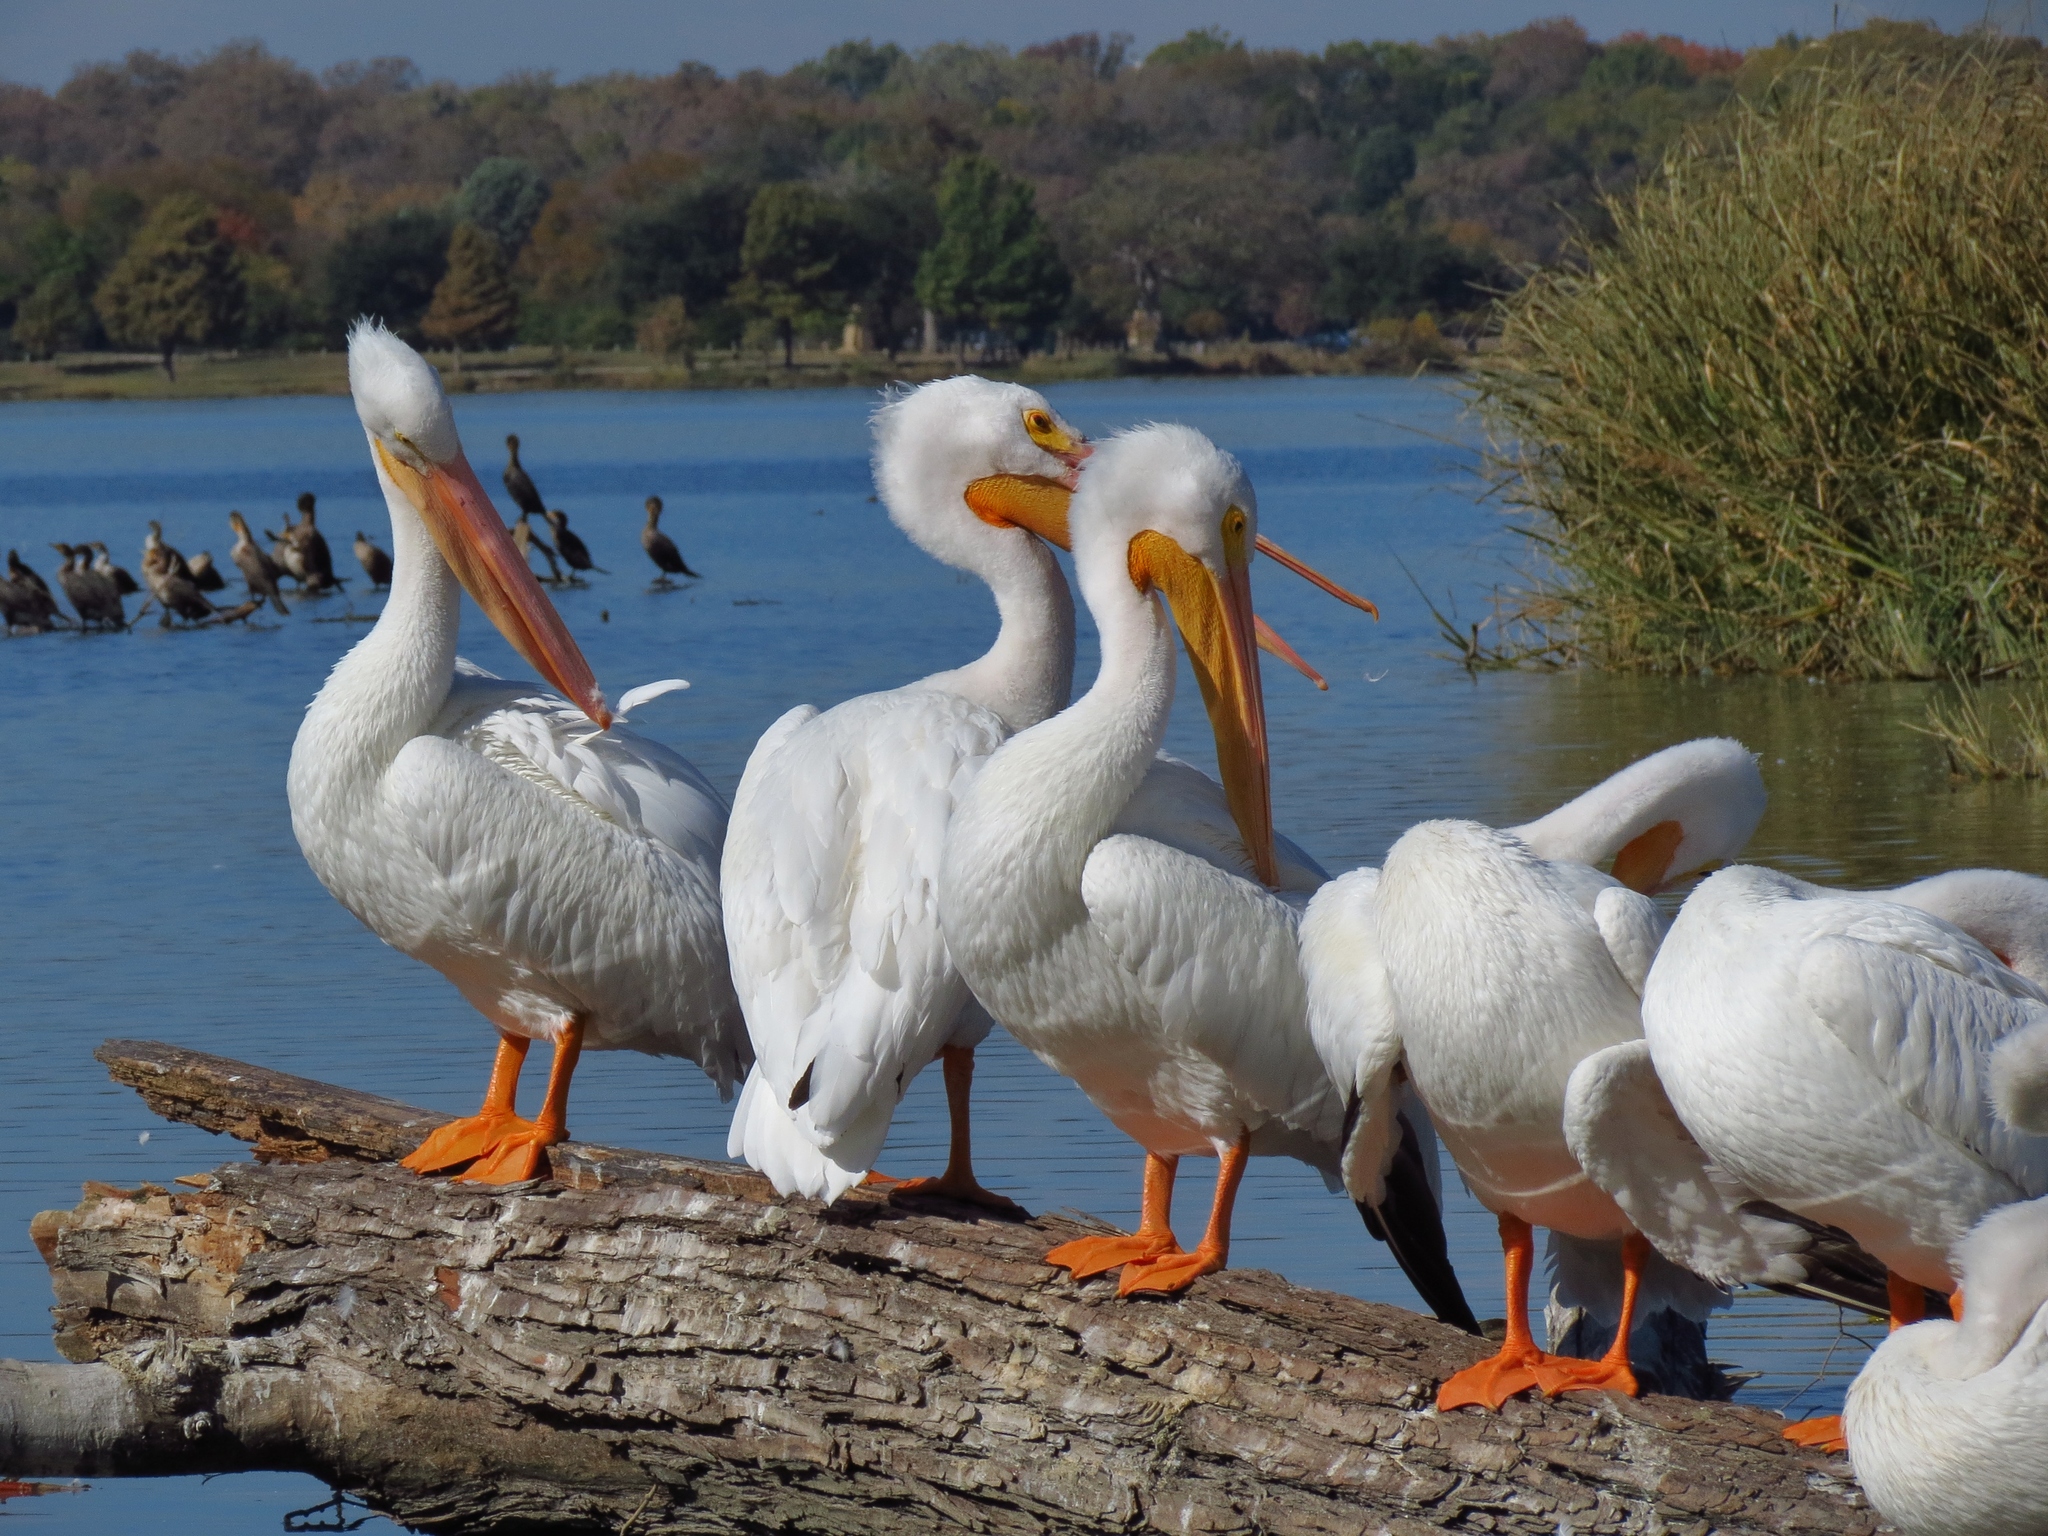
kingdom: Animalia
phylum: Chordata
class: Aves
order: Pelecaniformes
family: Pelecanidae
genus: Pelecanus
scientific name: Pelecanus erythrorhynchos
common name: American white pelican
